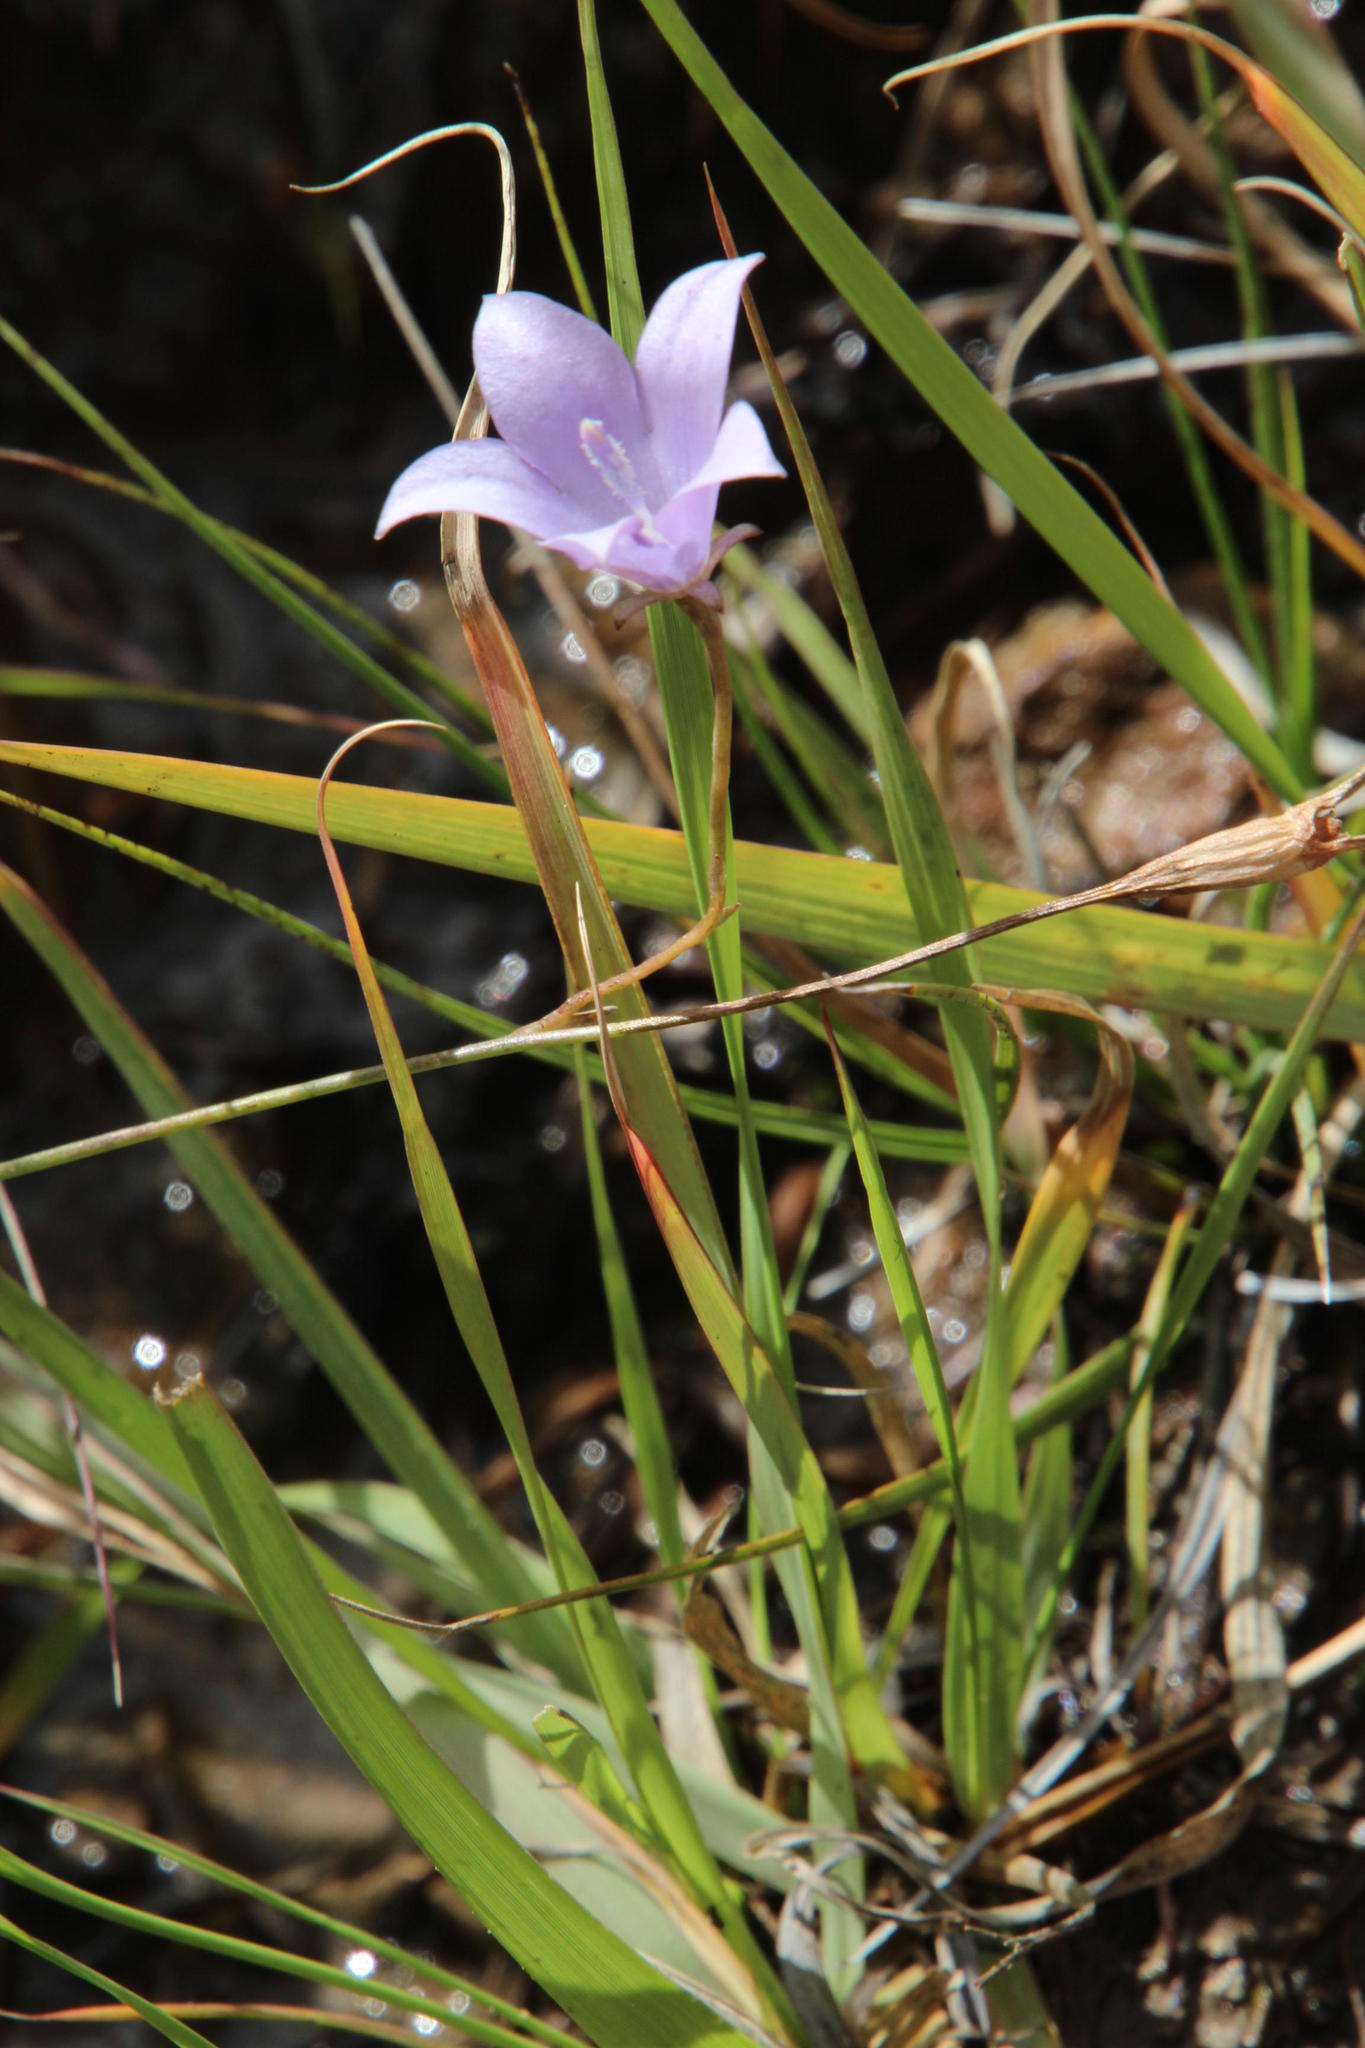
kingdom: Plantae
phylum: Tracheophyta
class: Magnoliopsida
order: Asterales
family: Campanulaceae
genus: Wahlenbergia
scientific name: Wahlenbergia rivularis
